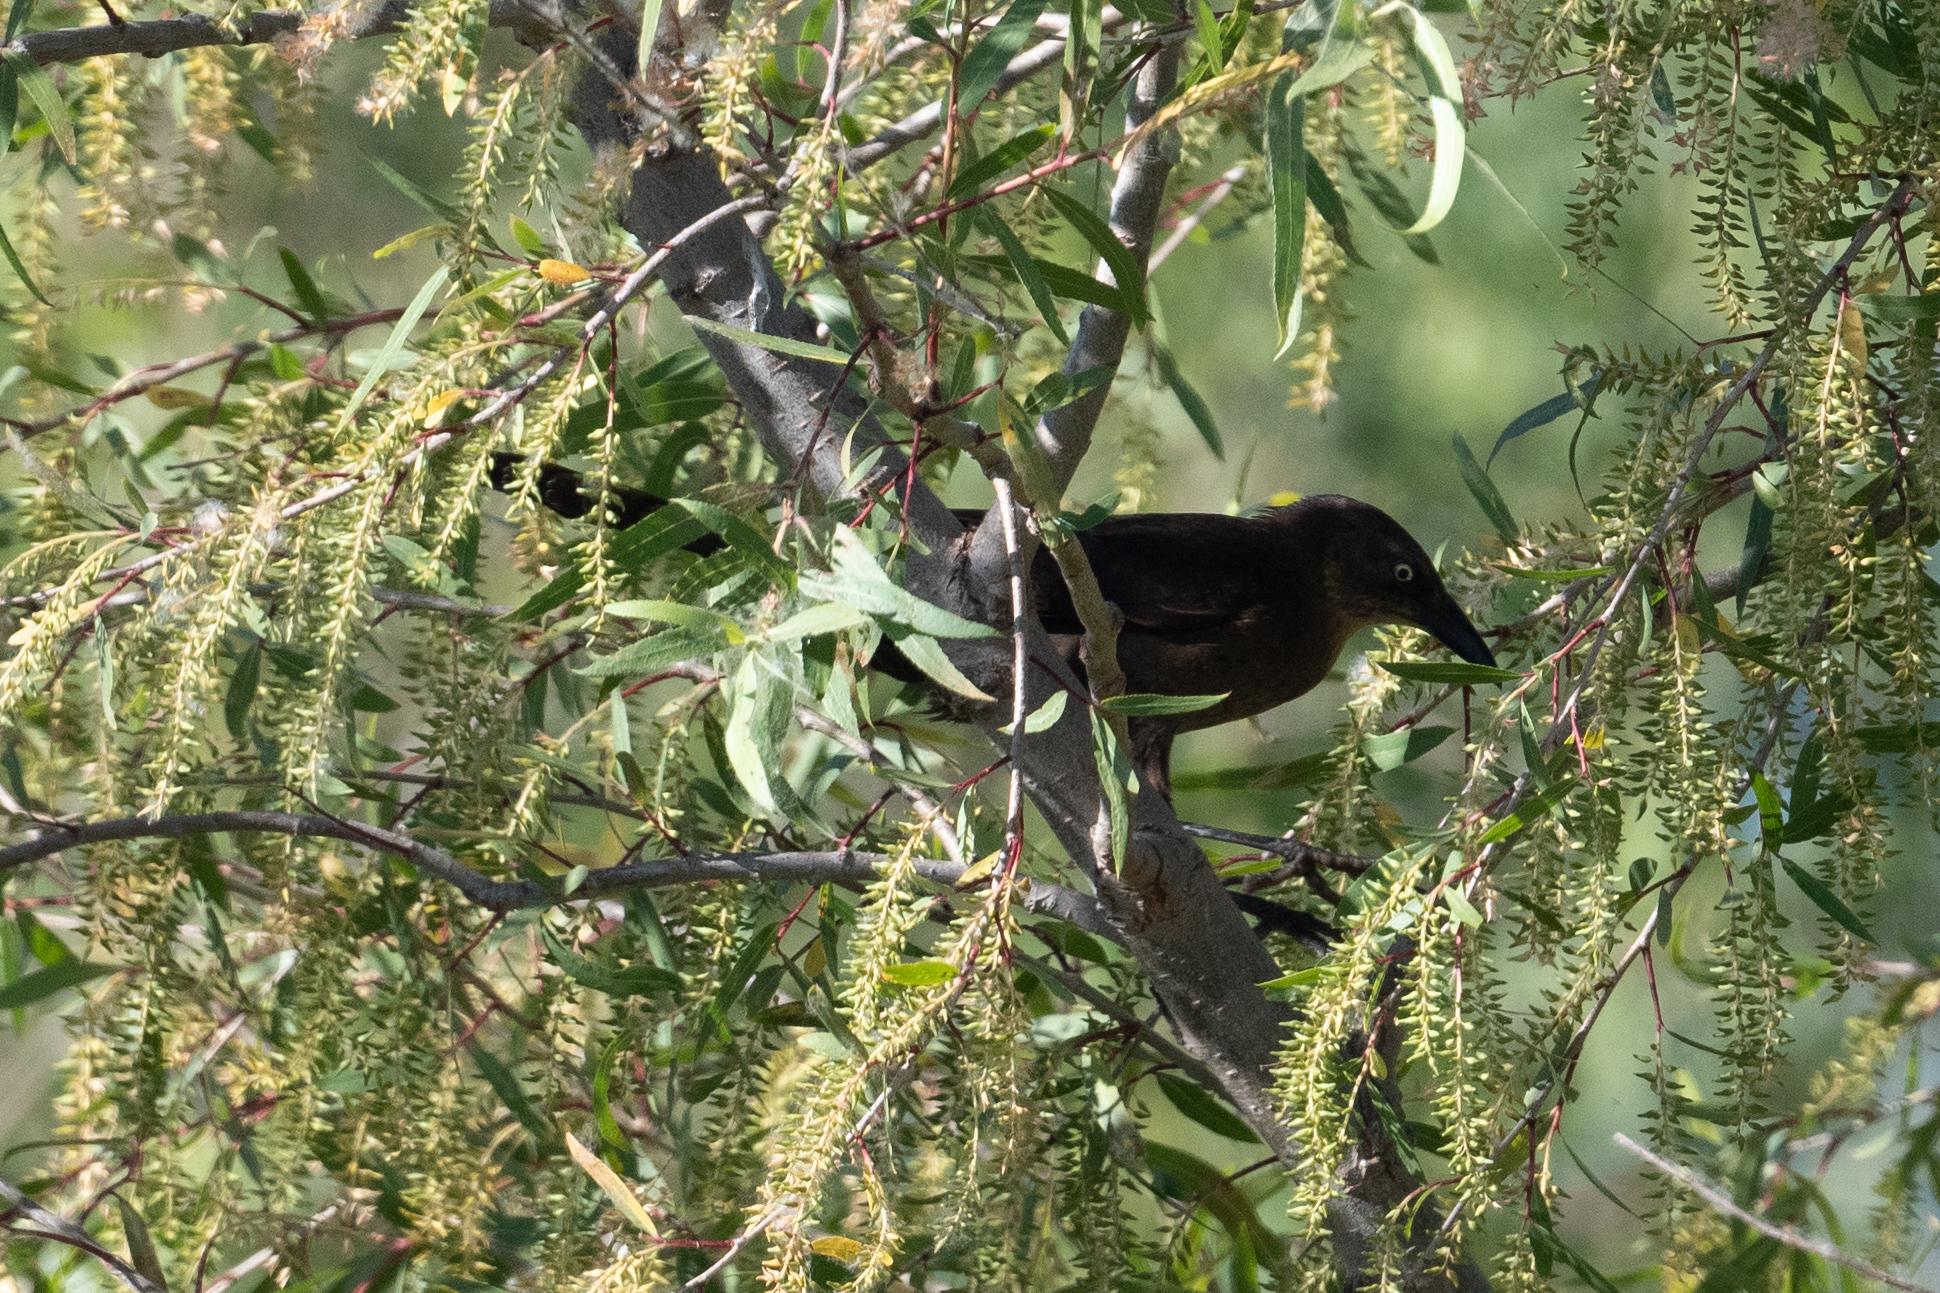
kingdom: Animalia
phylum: Chordata
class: Aves
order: Passeriformes
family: Icteridae
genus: Quiscalus
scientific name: Quiscalus mexicanus
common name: Great-tailed grackle
